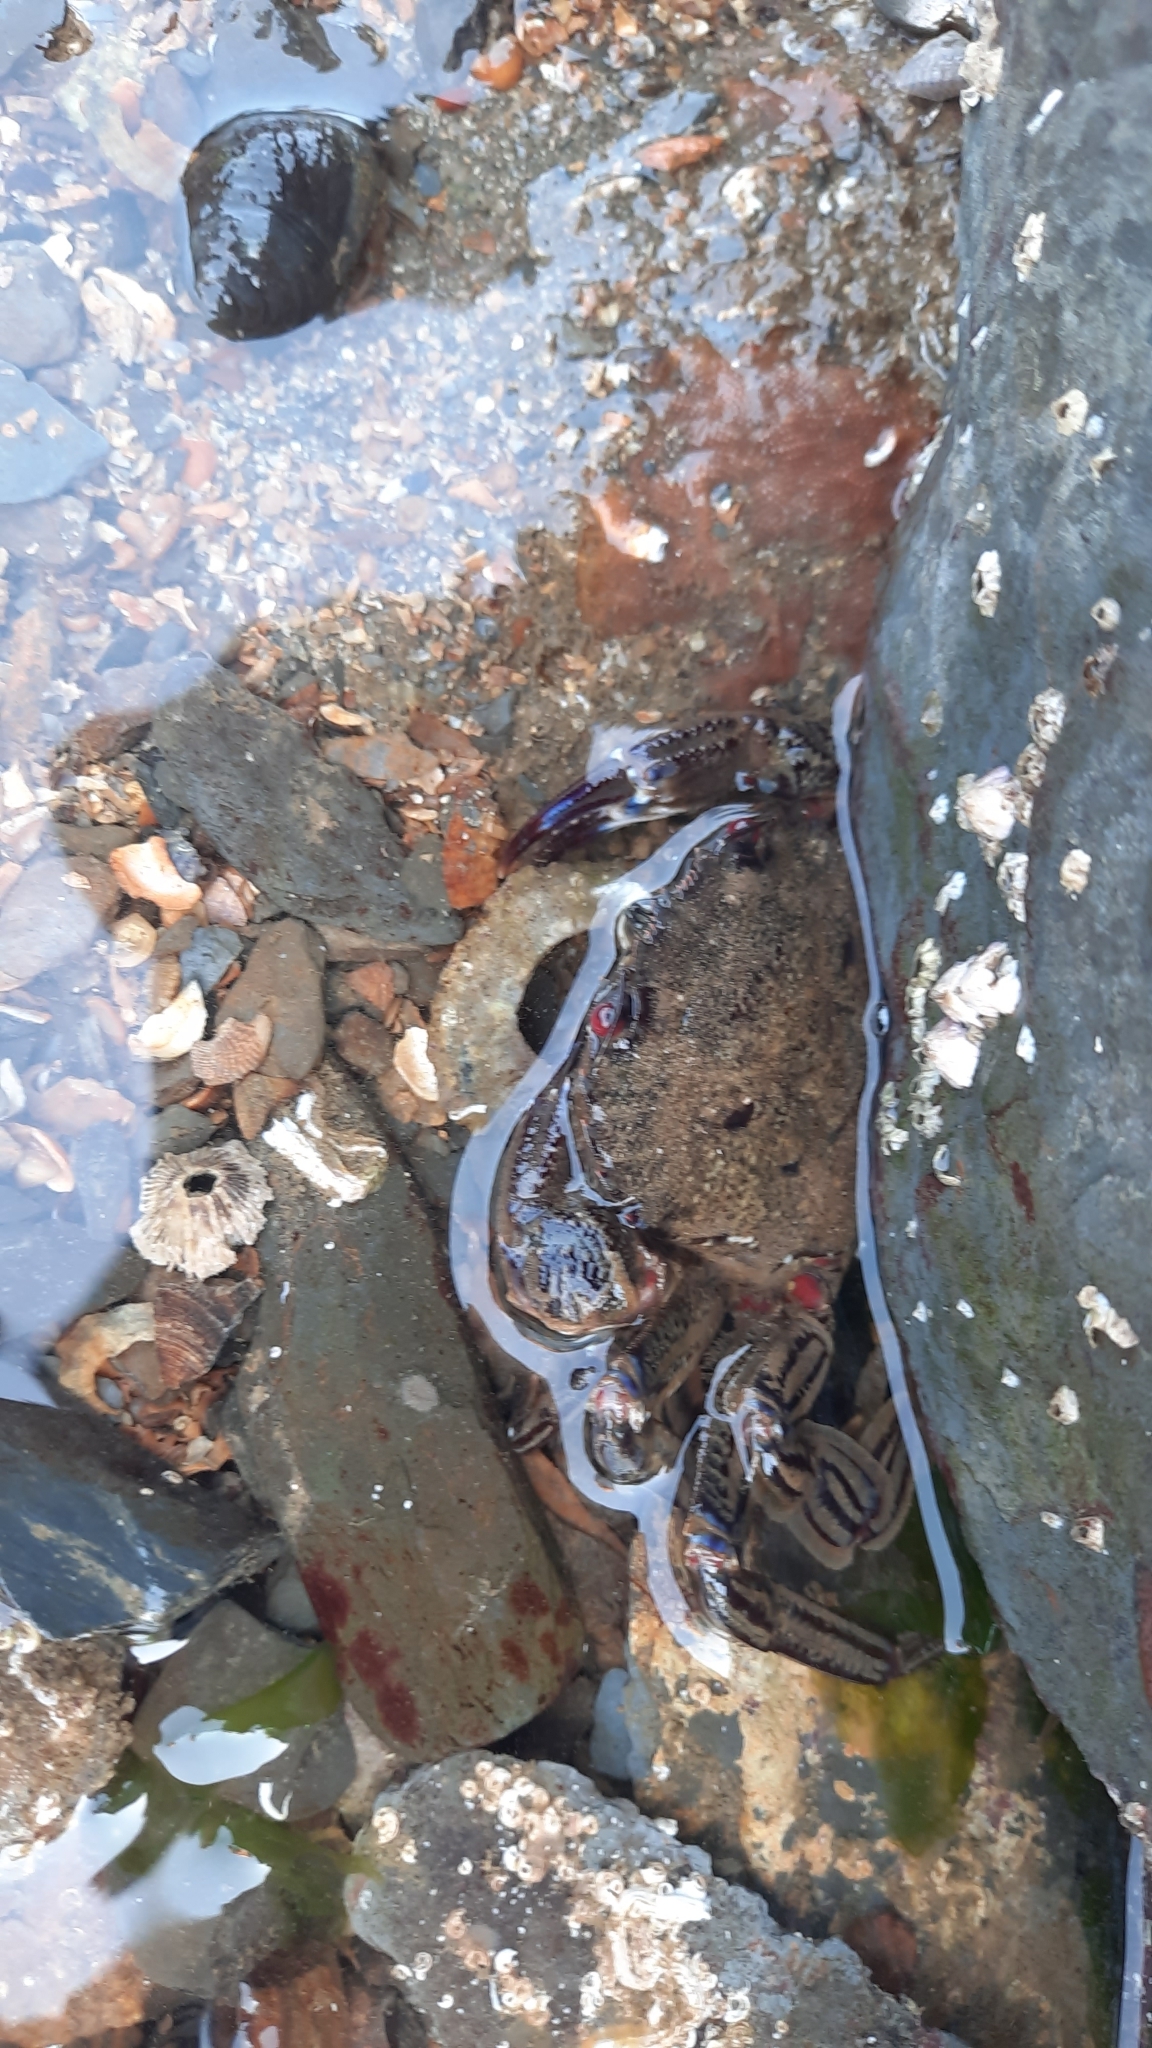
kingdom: Animalia
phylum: Arthropoda
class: Malacostraca
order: Decapoda
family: Polybiidae
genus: Necora
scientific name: Necora puber
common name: Velvet swimming crab
